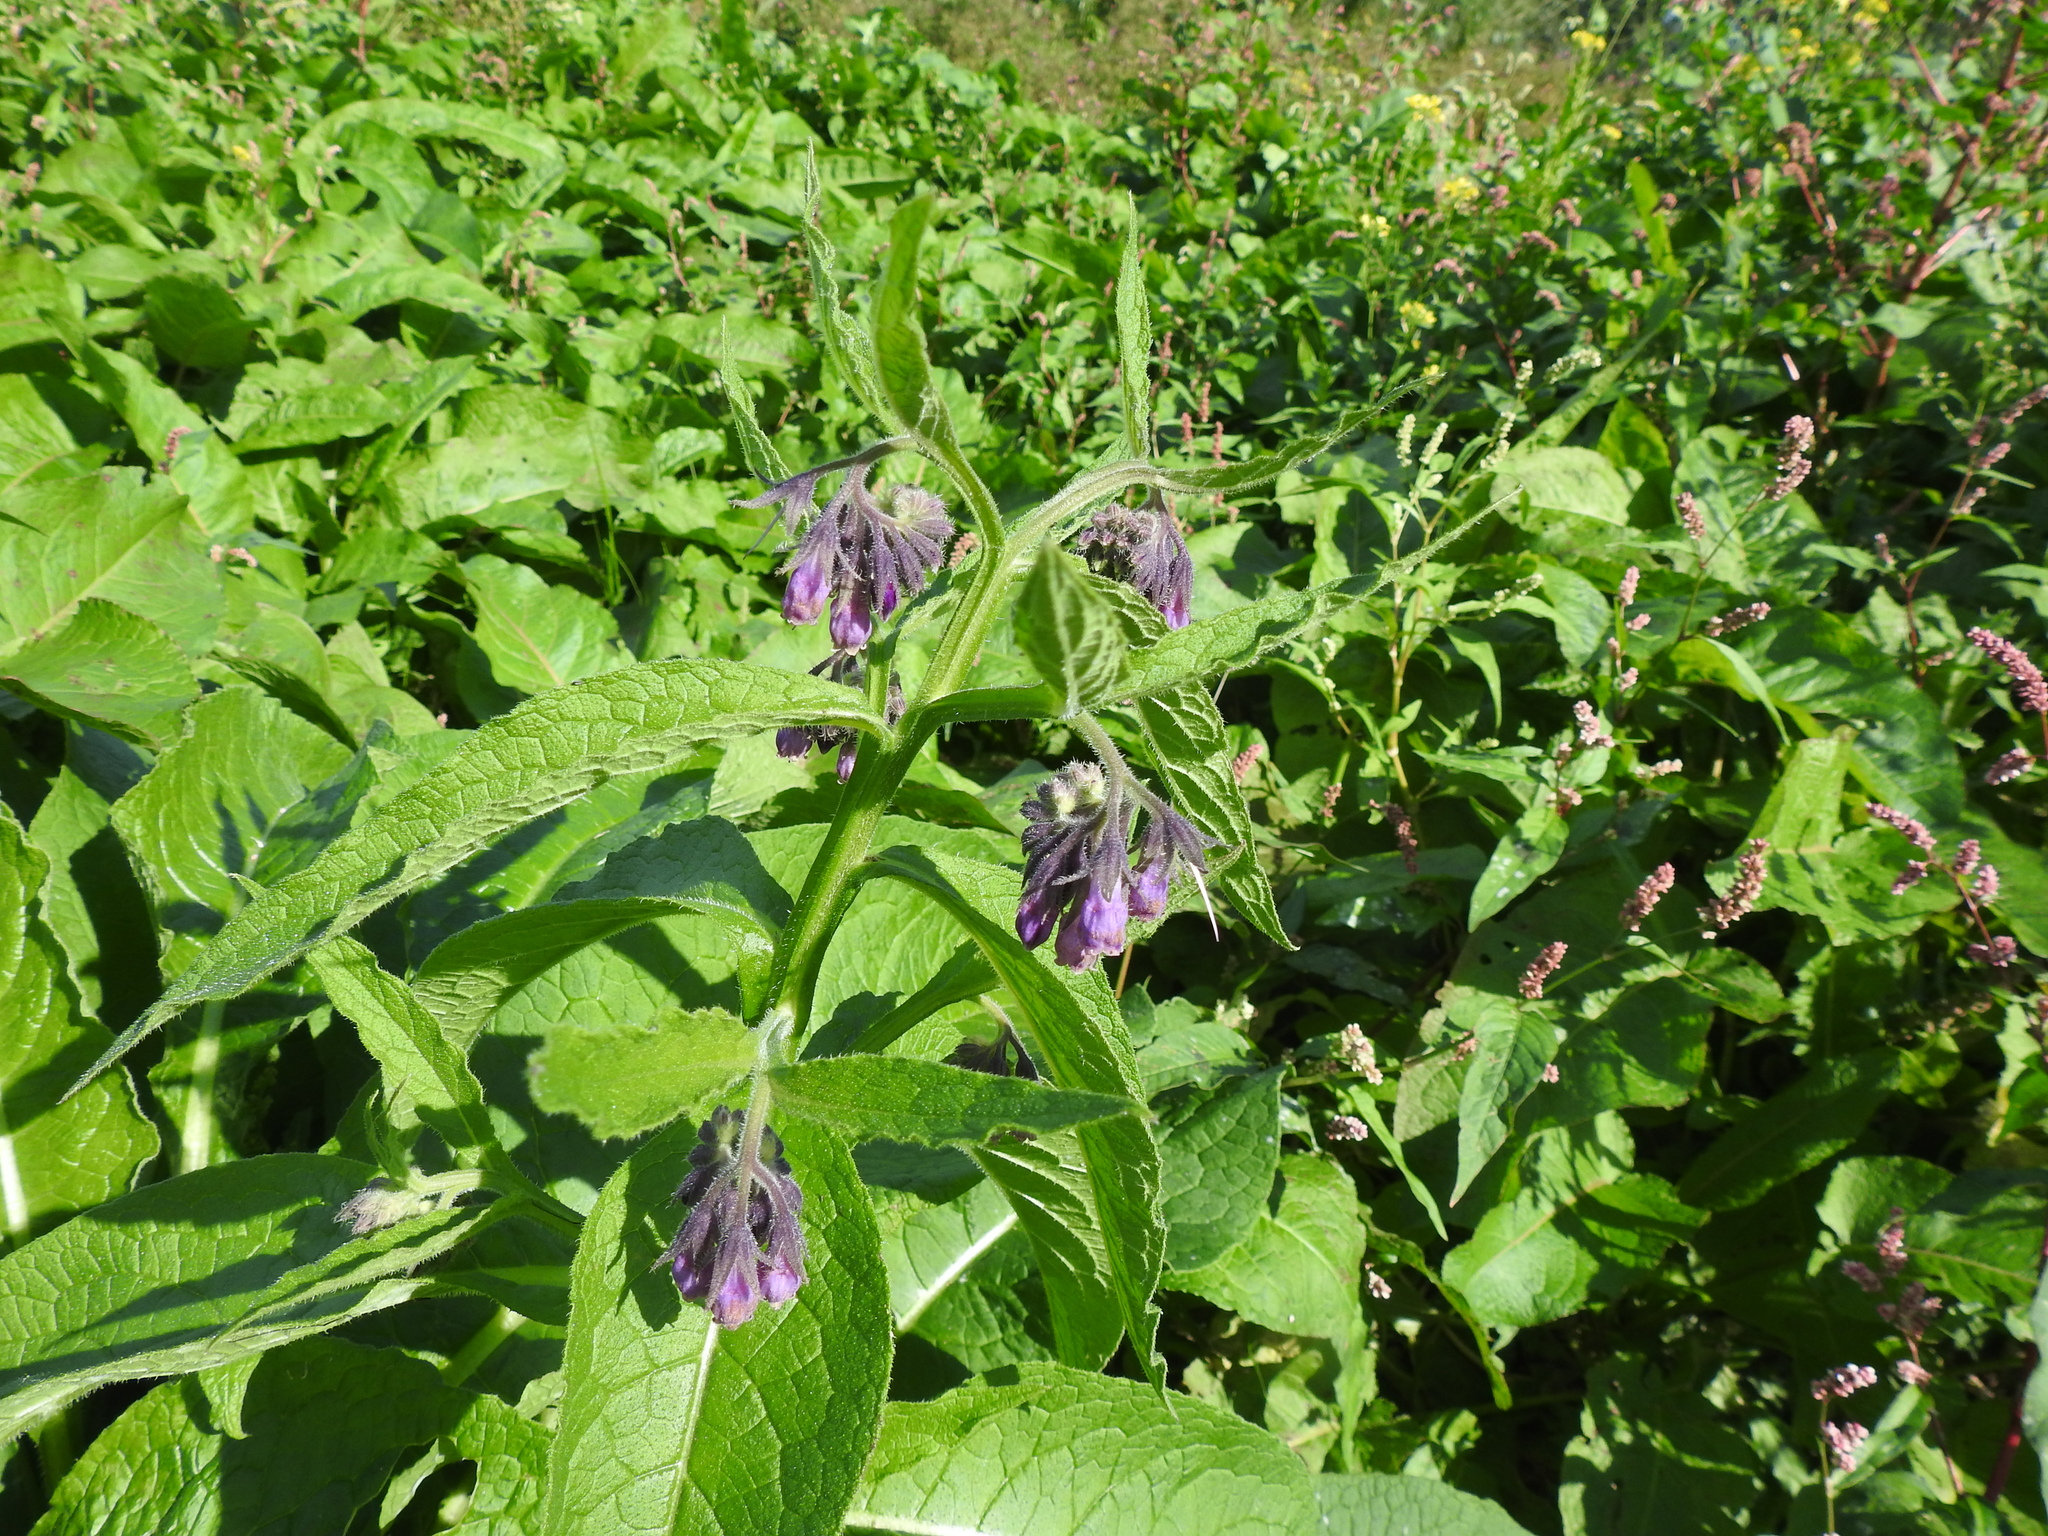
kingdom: Plantae
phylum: Tracheophyta
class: Magnoliopsida
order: Boraginales
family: Boraginaceae
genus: Symphytum
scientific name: Symphytum officinale
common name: Common comfrey
